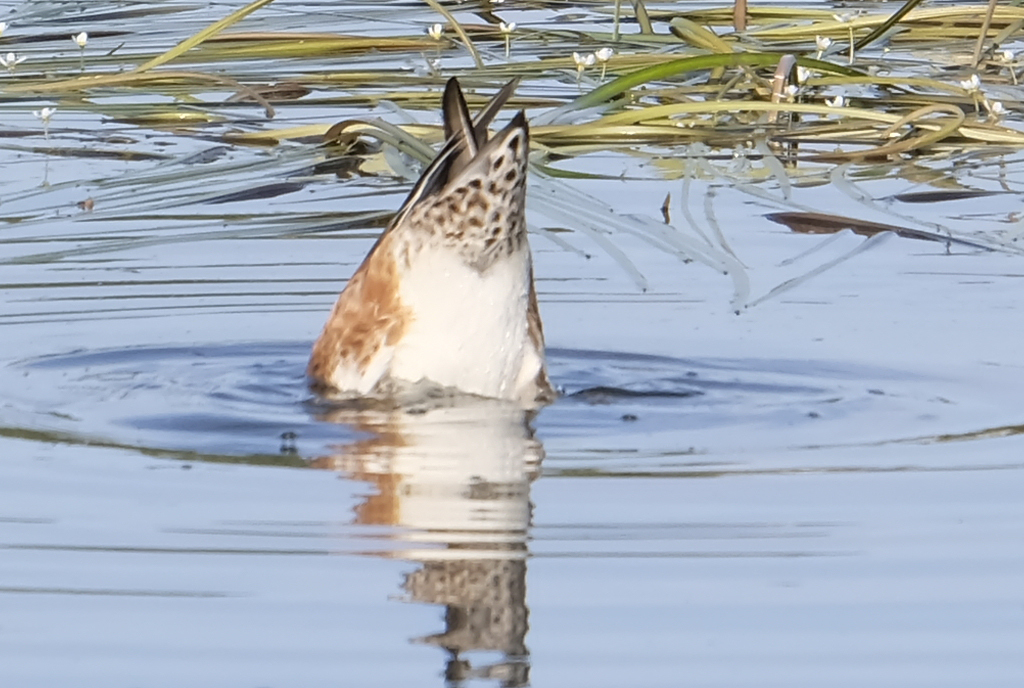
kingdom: Animalia
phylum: Chordata
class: Aves
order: Anseriformes
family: Anatidae
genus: Mareca
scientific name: Mareca americana
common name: American wigeon
